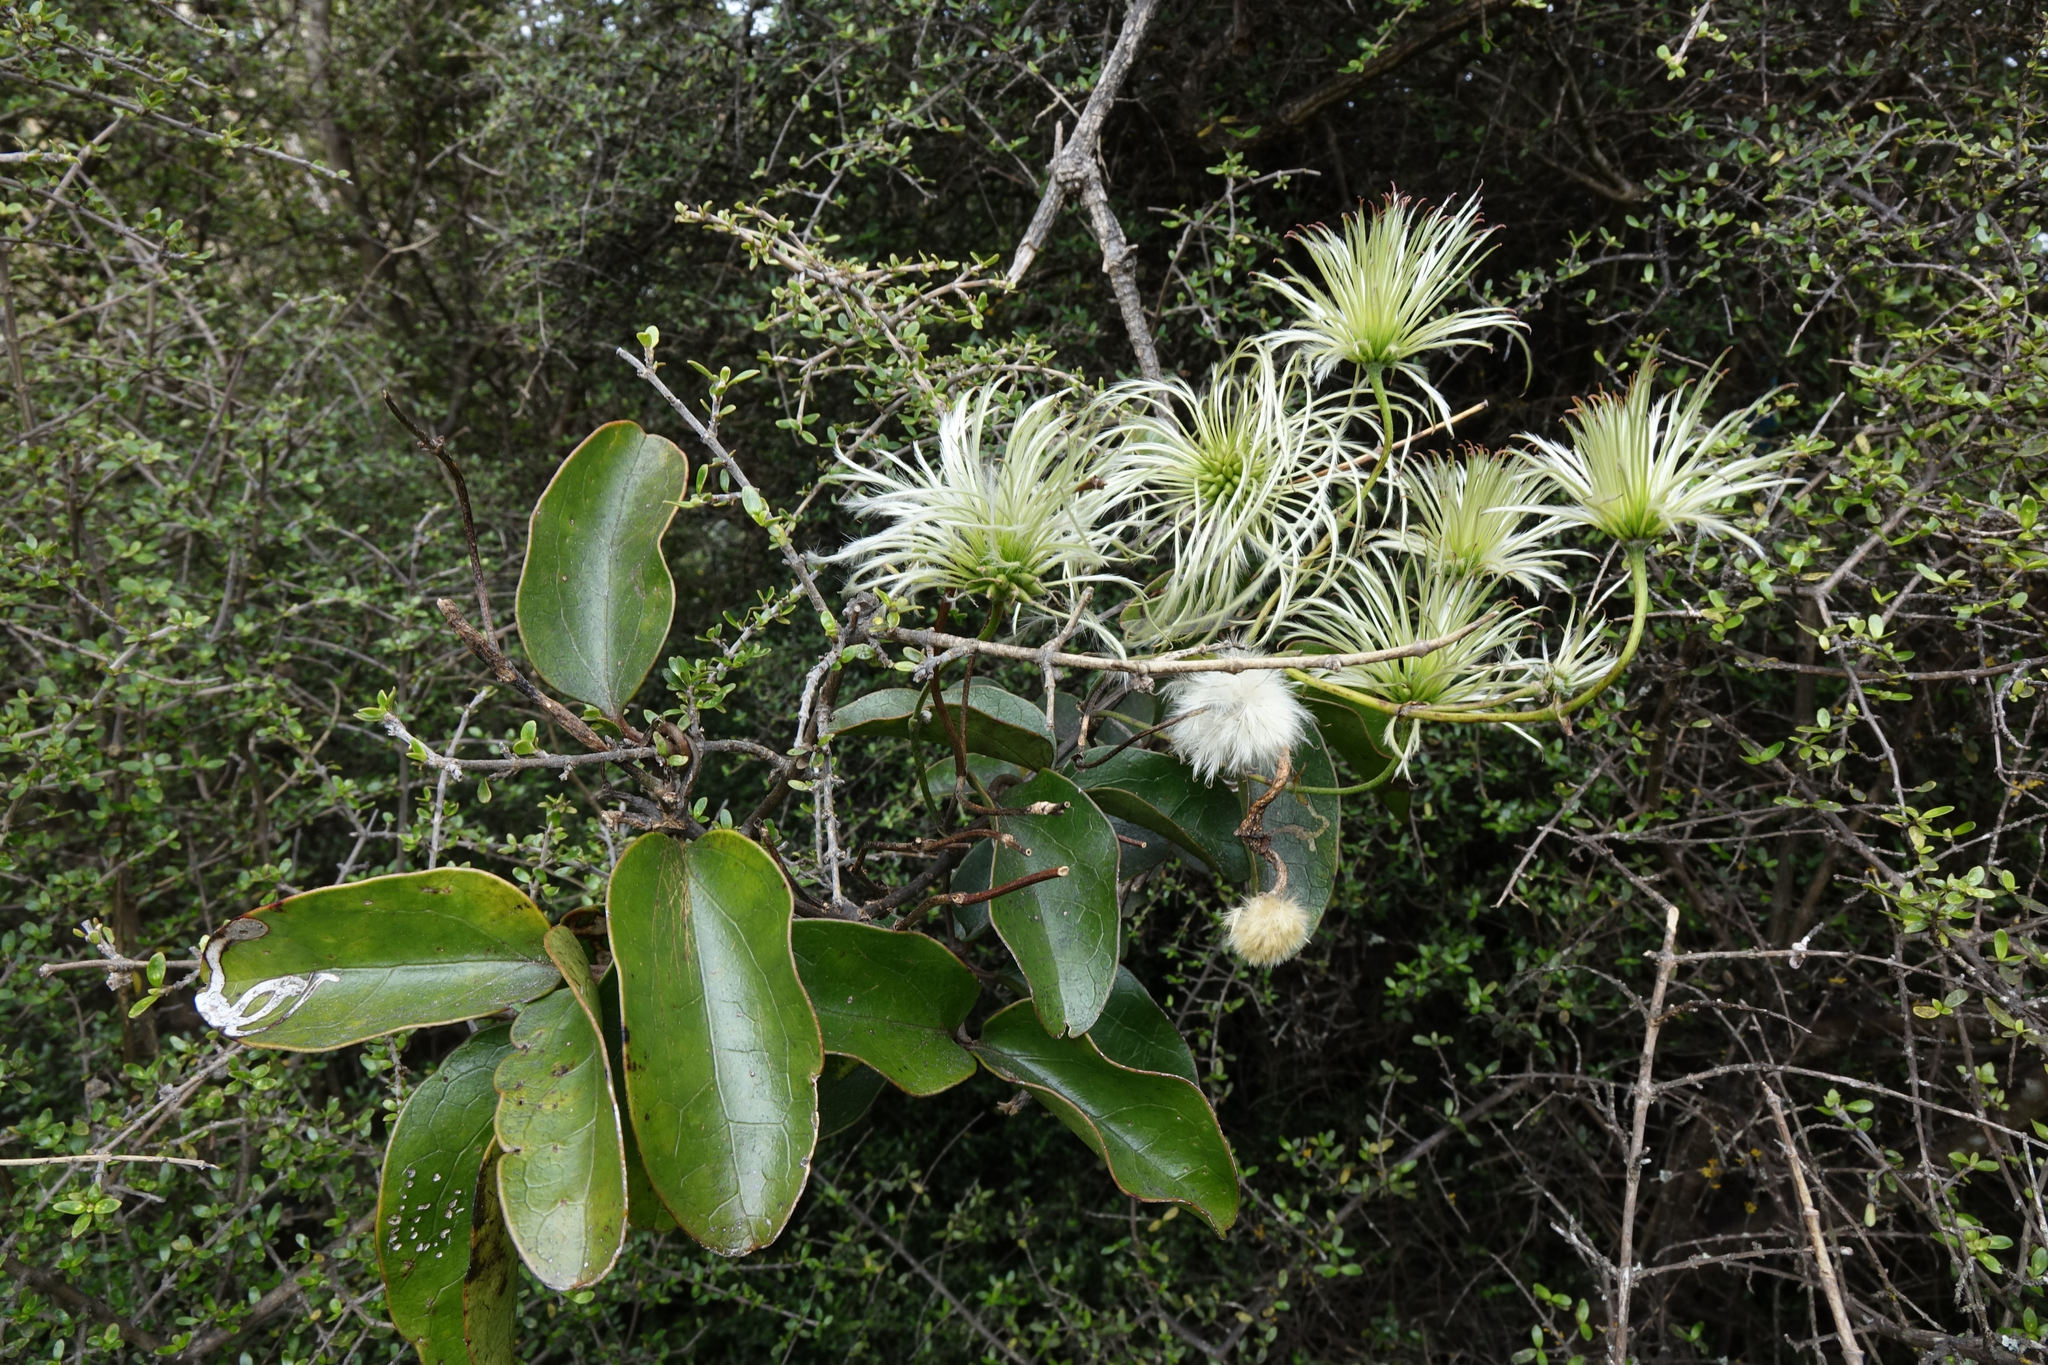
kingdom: Plantae
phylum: Tracheophyta
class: Magnoliopsida
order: Ranunculales
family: Ranunculaceae
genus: Clematis
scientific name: Clematis paniculata
